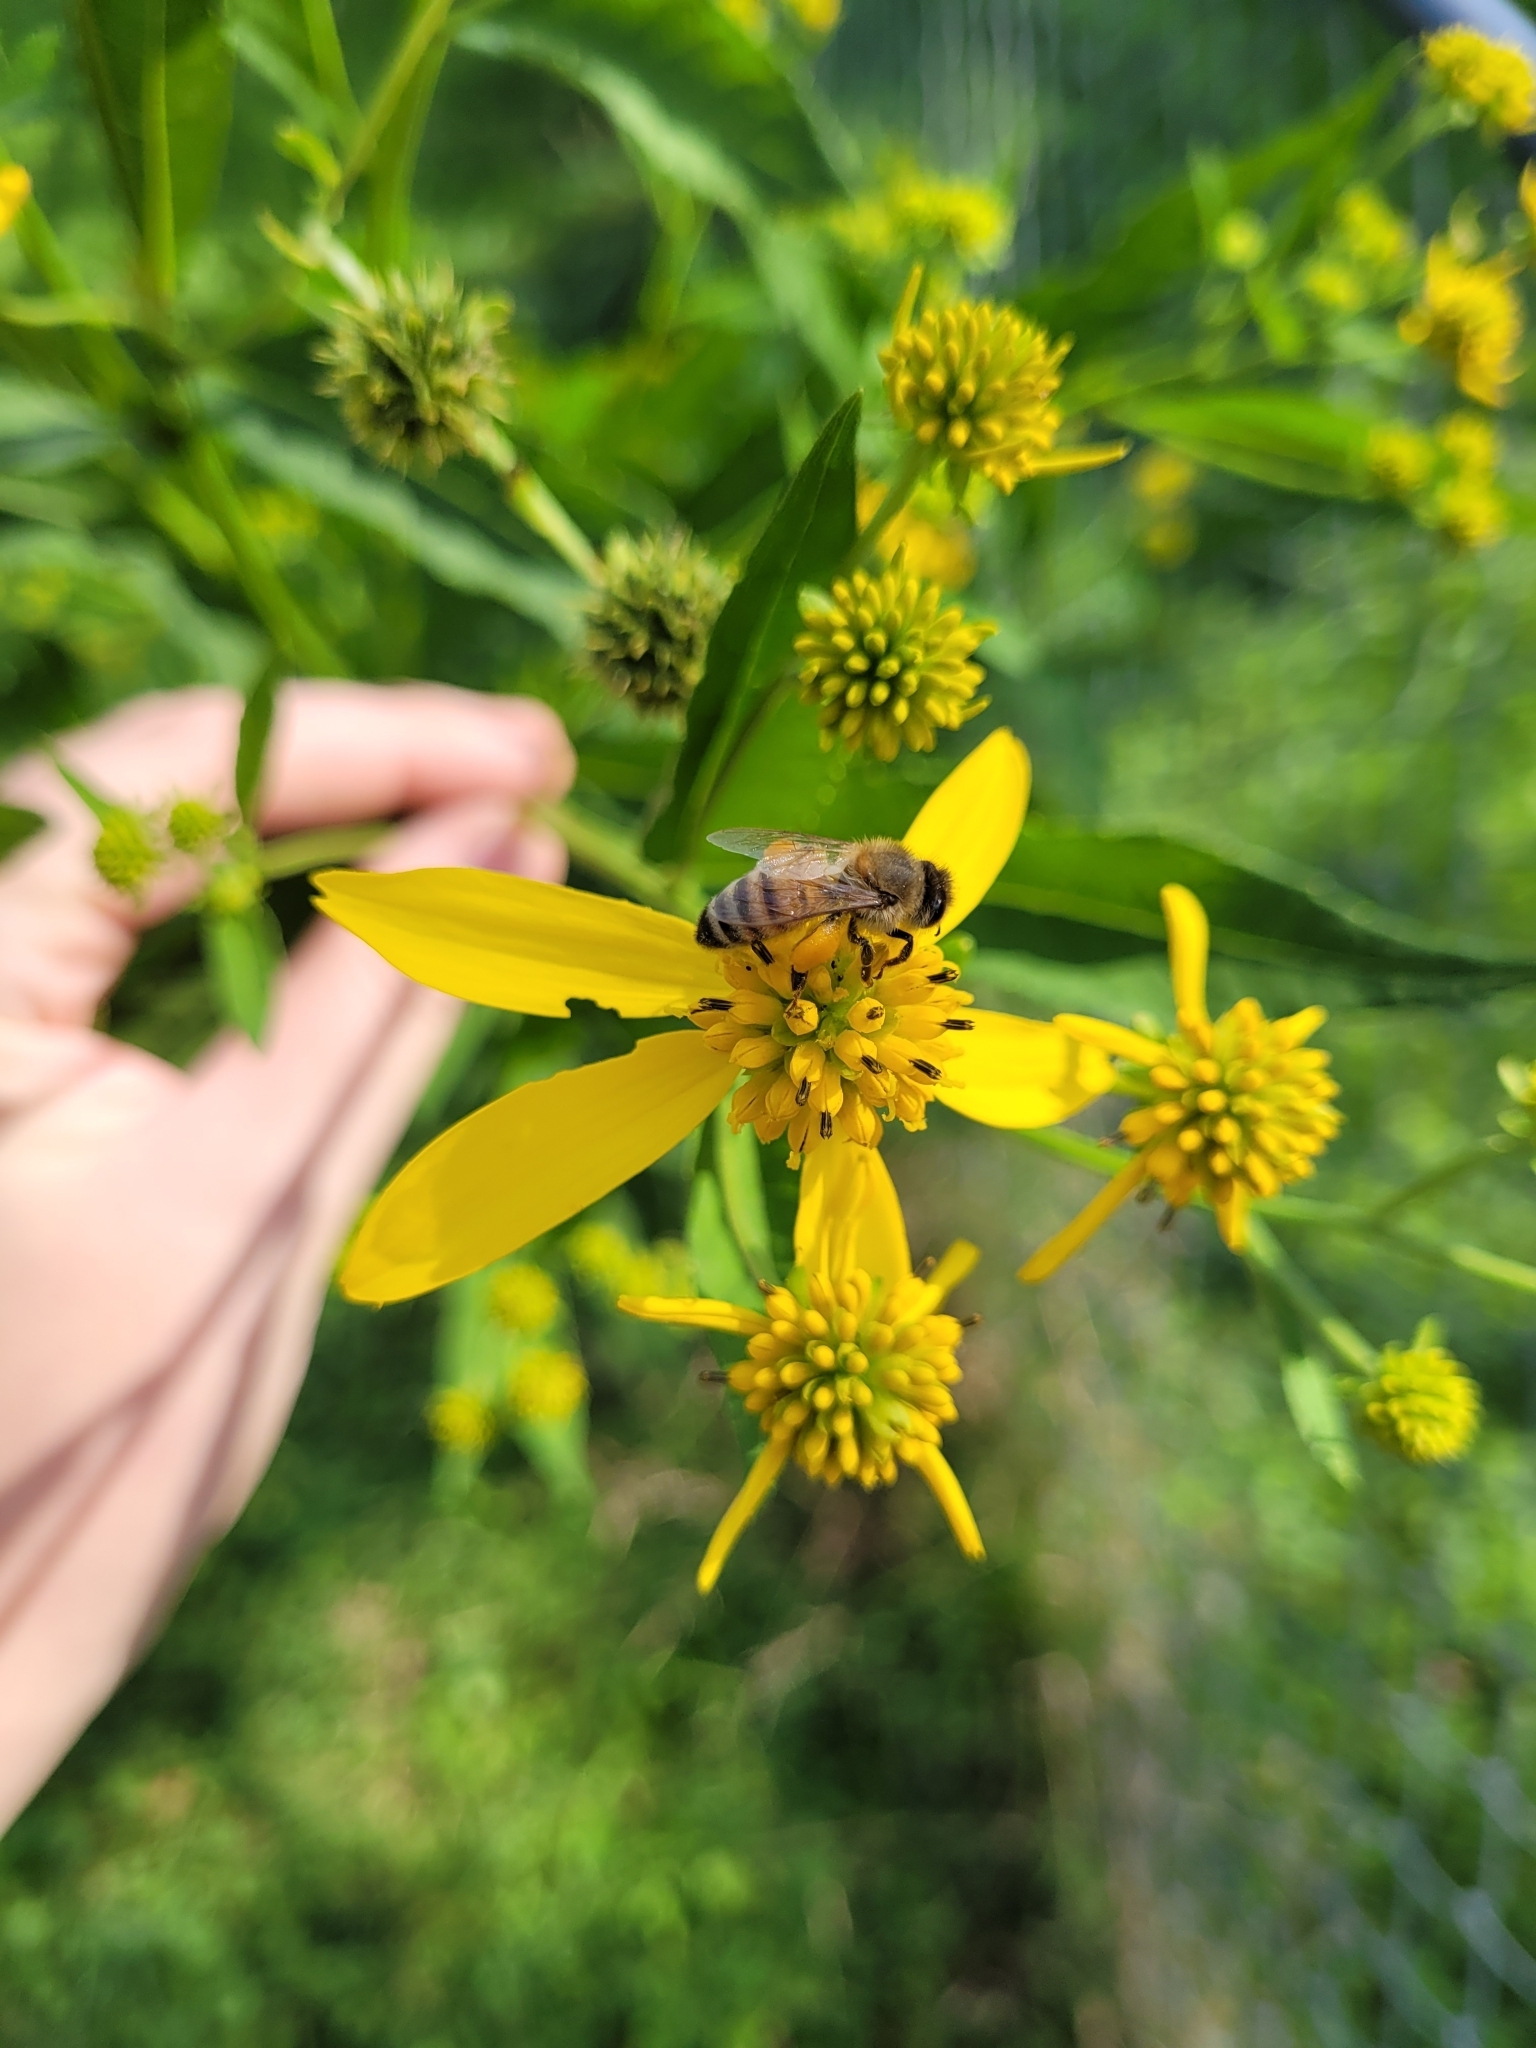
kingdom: Animalia
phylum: Arthropoda
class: Insecta
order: Hymenoptera
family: Apidae
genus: Apis
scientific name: Apis mellifera
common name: Honey bee
